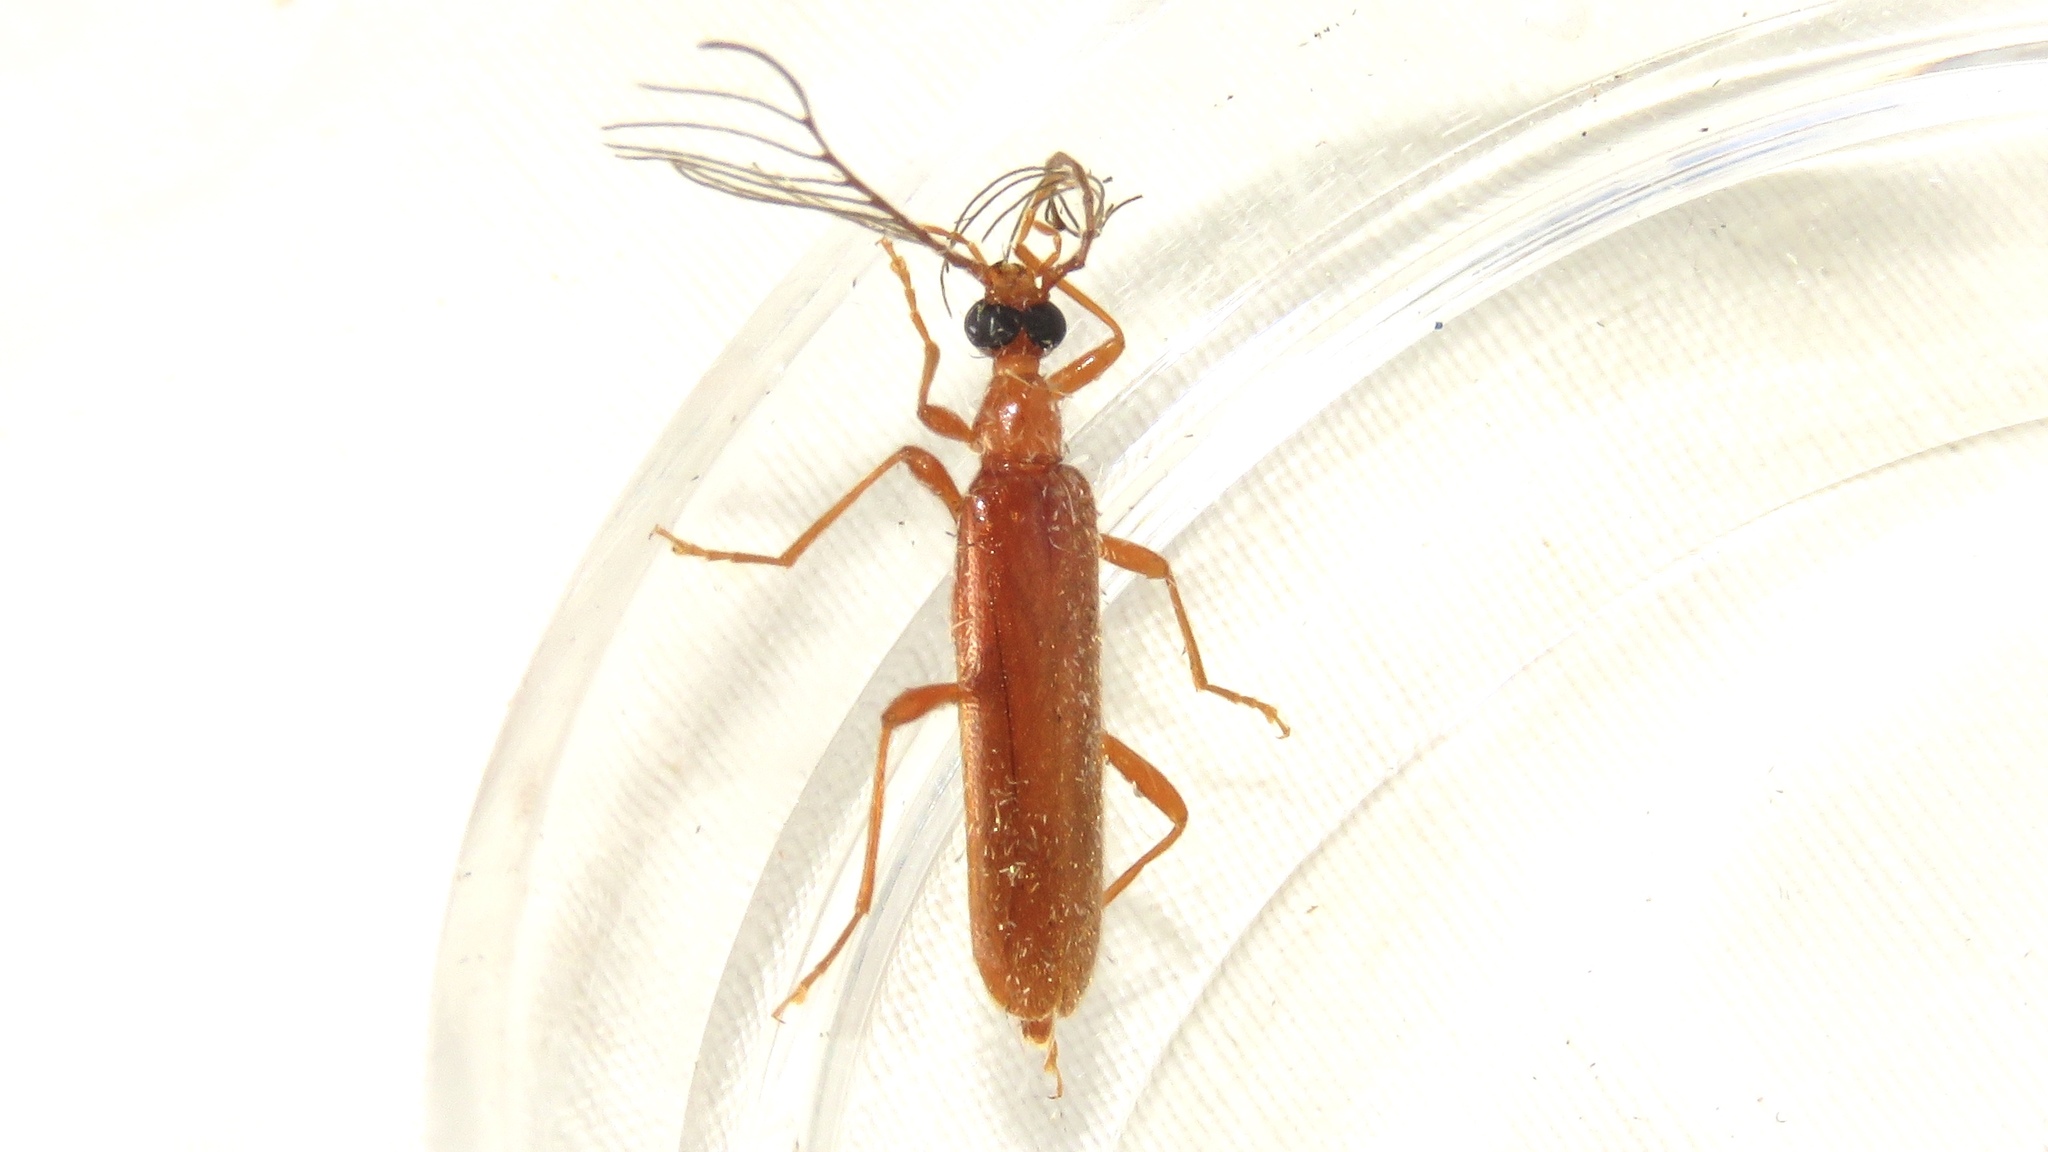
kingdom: Animalia
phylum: Arthropoda
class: Insecta
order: Coleoptera
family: Pyrochroidae
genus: Dendroides
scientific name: Dendroides concolor
